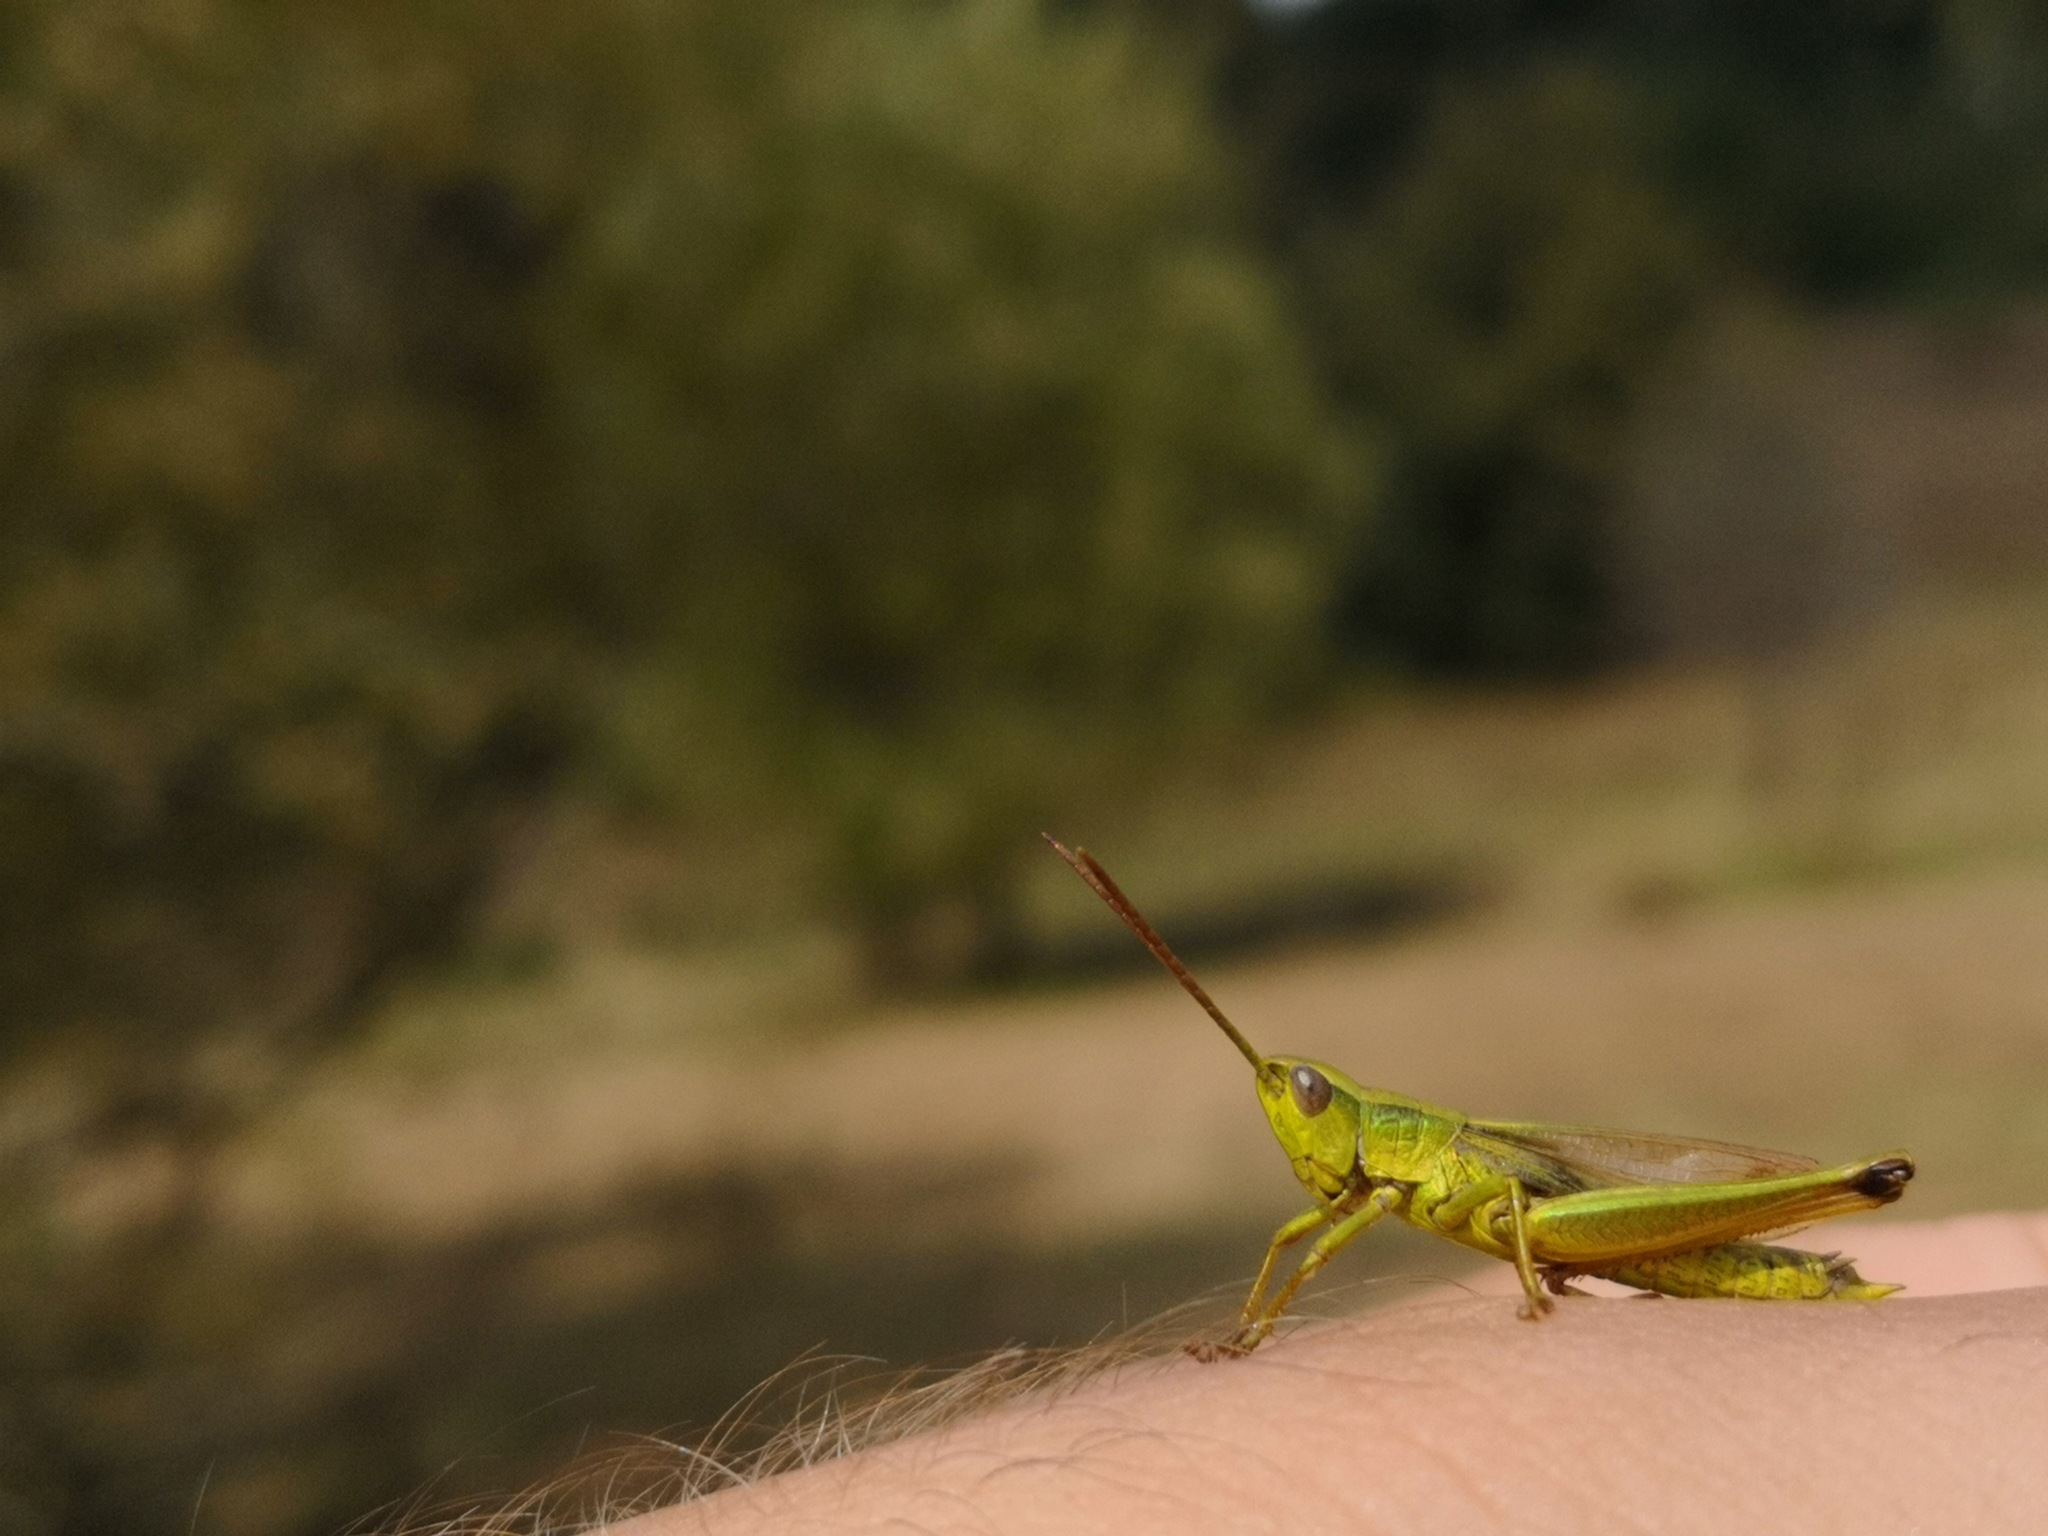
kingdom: Animalia
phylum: Arthropoda
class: Insecta
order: Orthoptera
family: Acrididae
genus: Chrysochraon
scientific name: Chrysochraon dispar
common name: Large gold grasshopper
